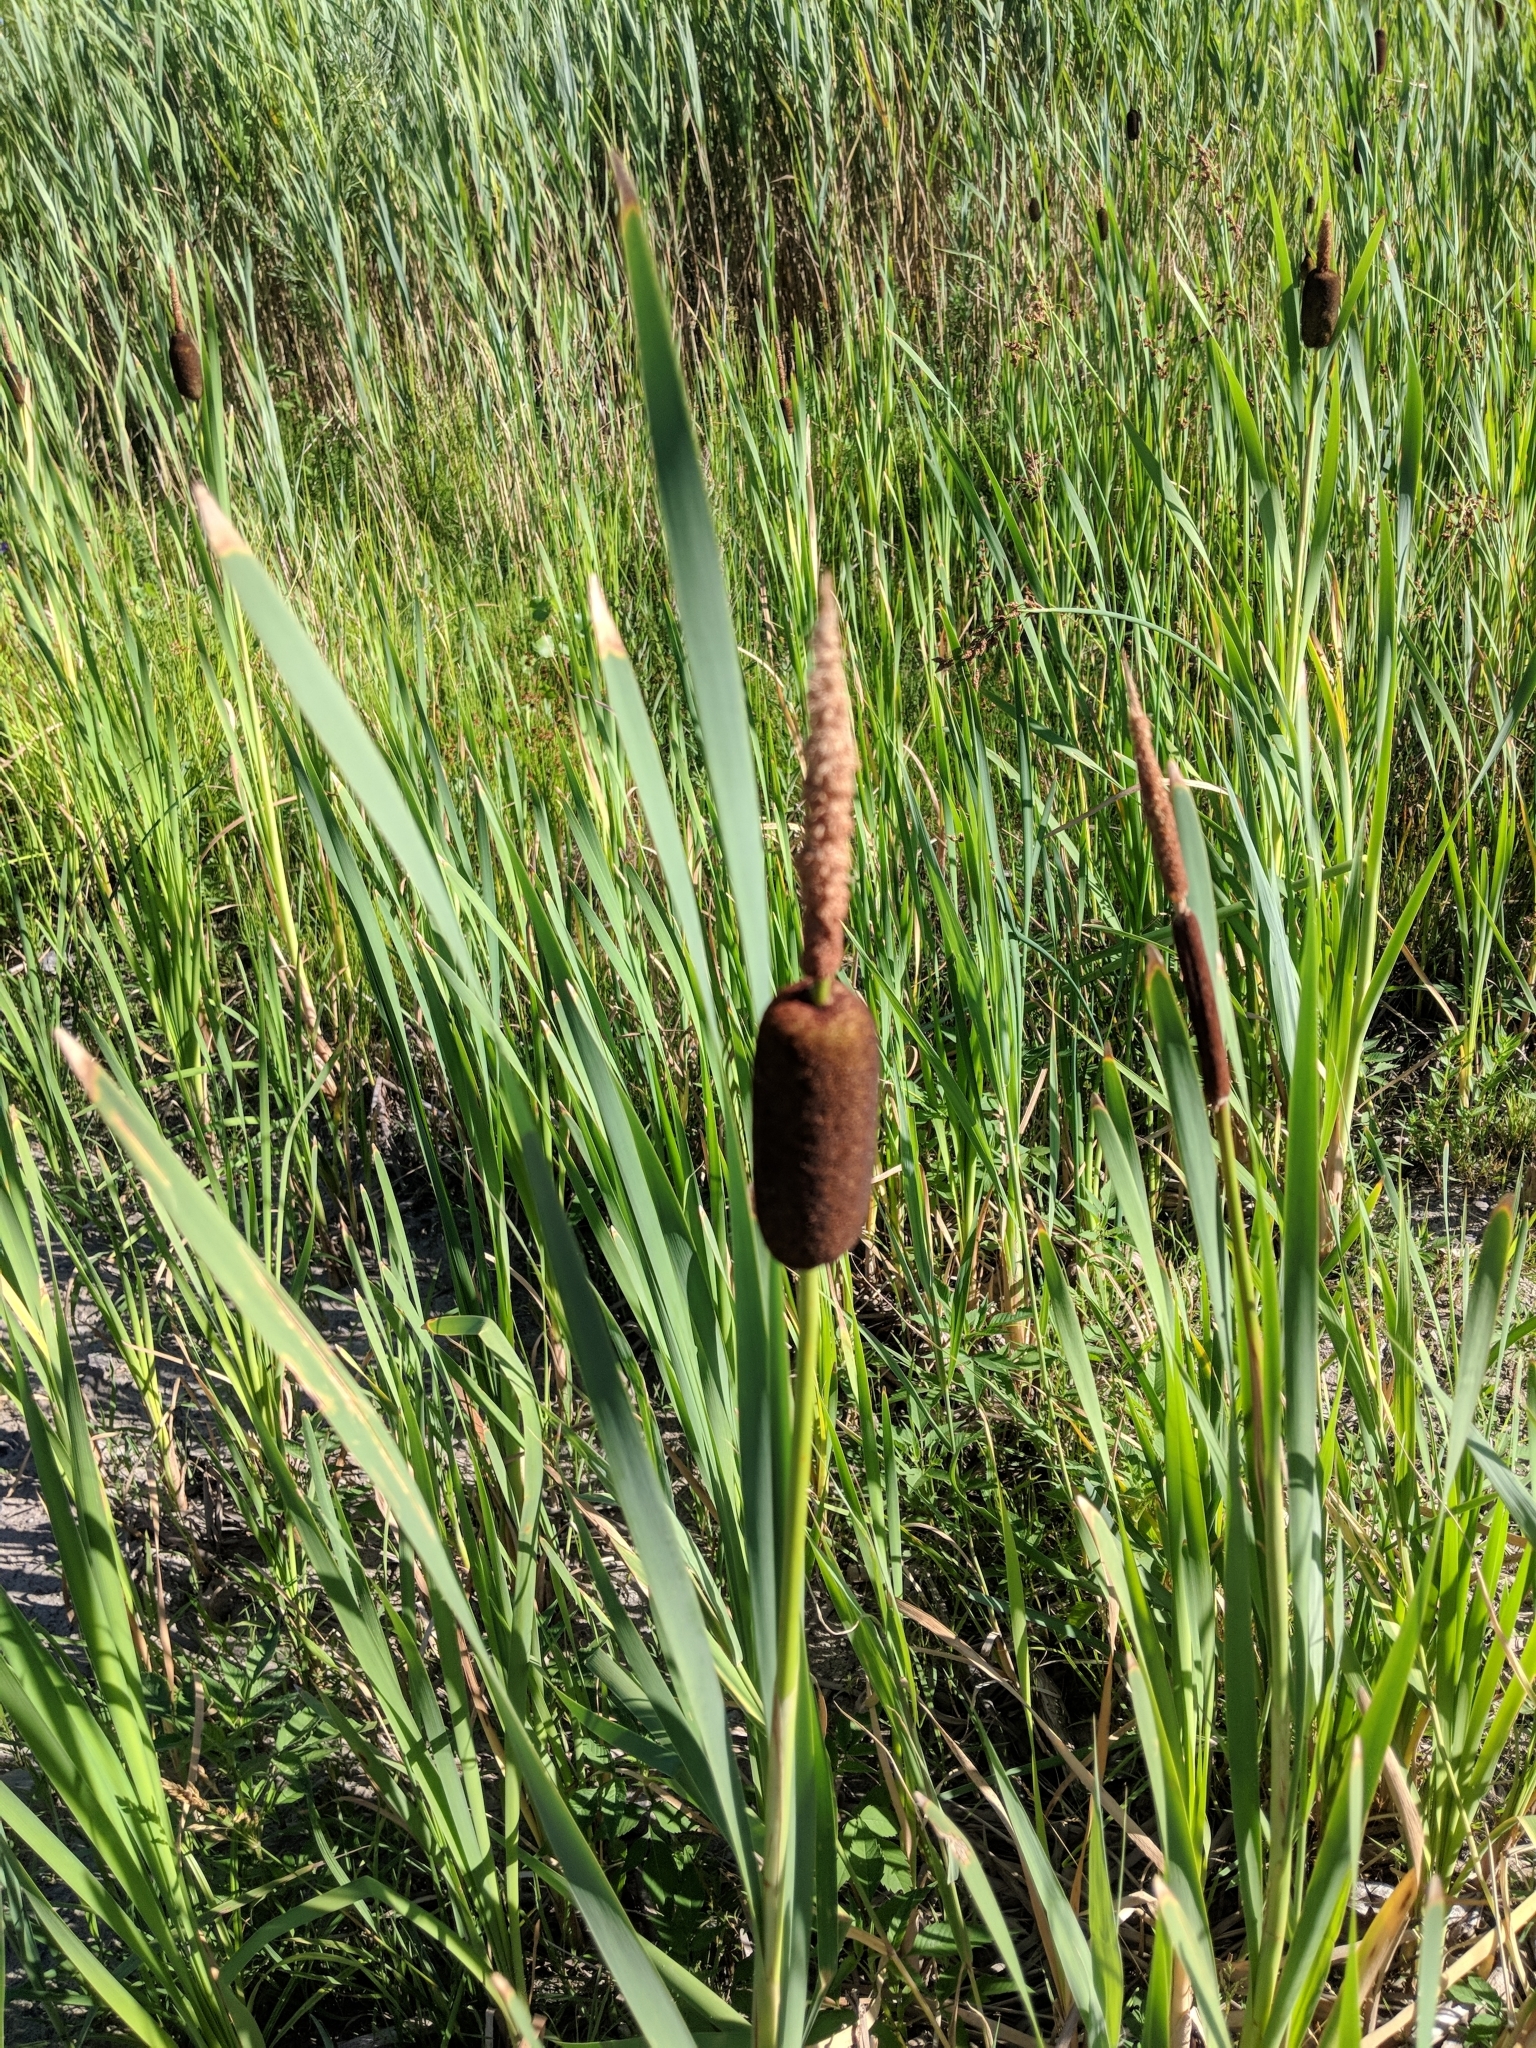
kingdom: Plantae
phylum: Tracheophyta
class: Liliopsida
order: Poales
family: Typhaceae
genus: Typha
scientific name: Typha latifolia
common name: Broadleaf cattail
